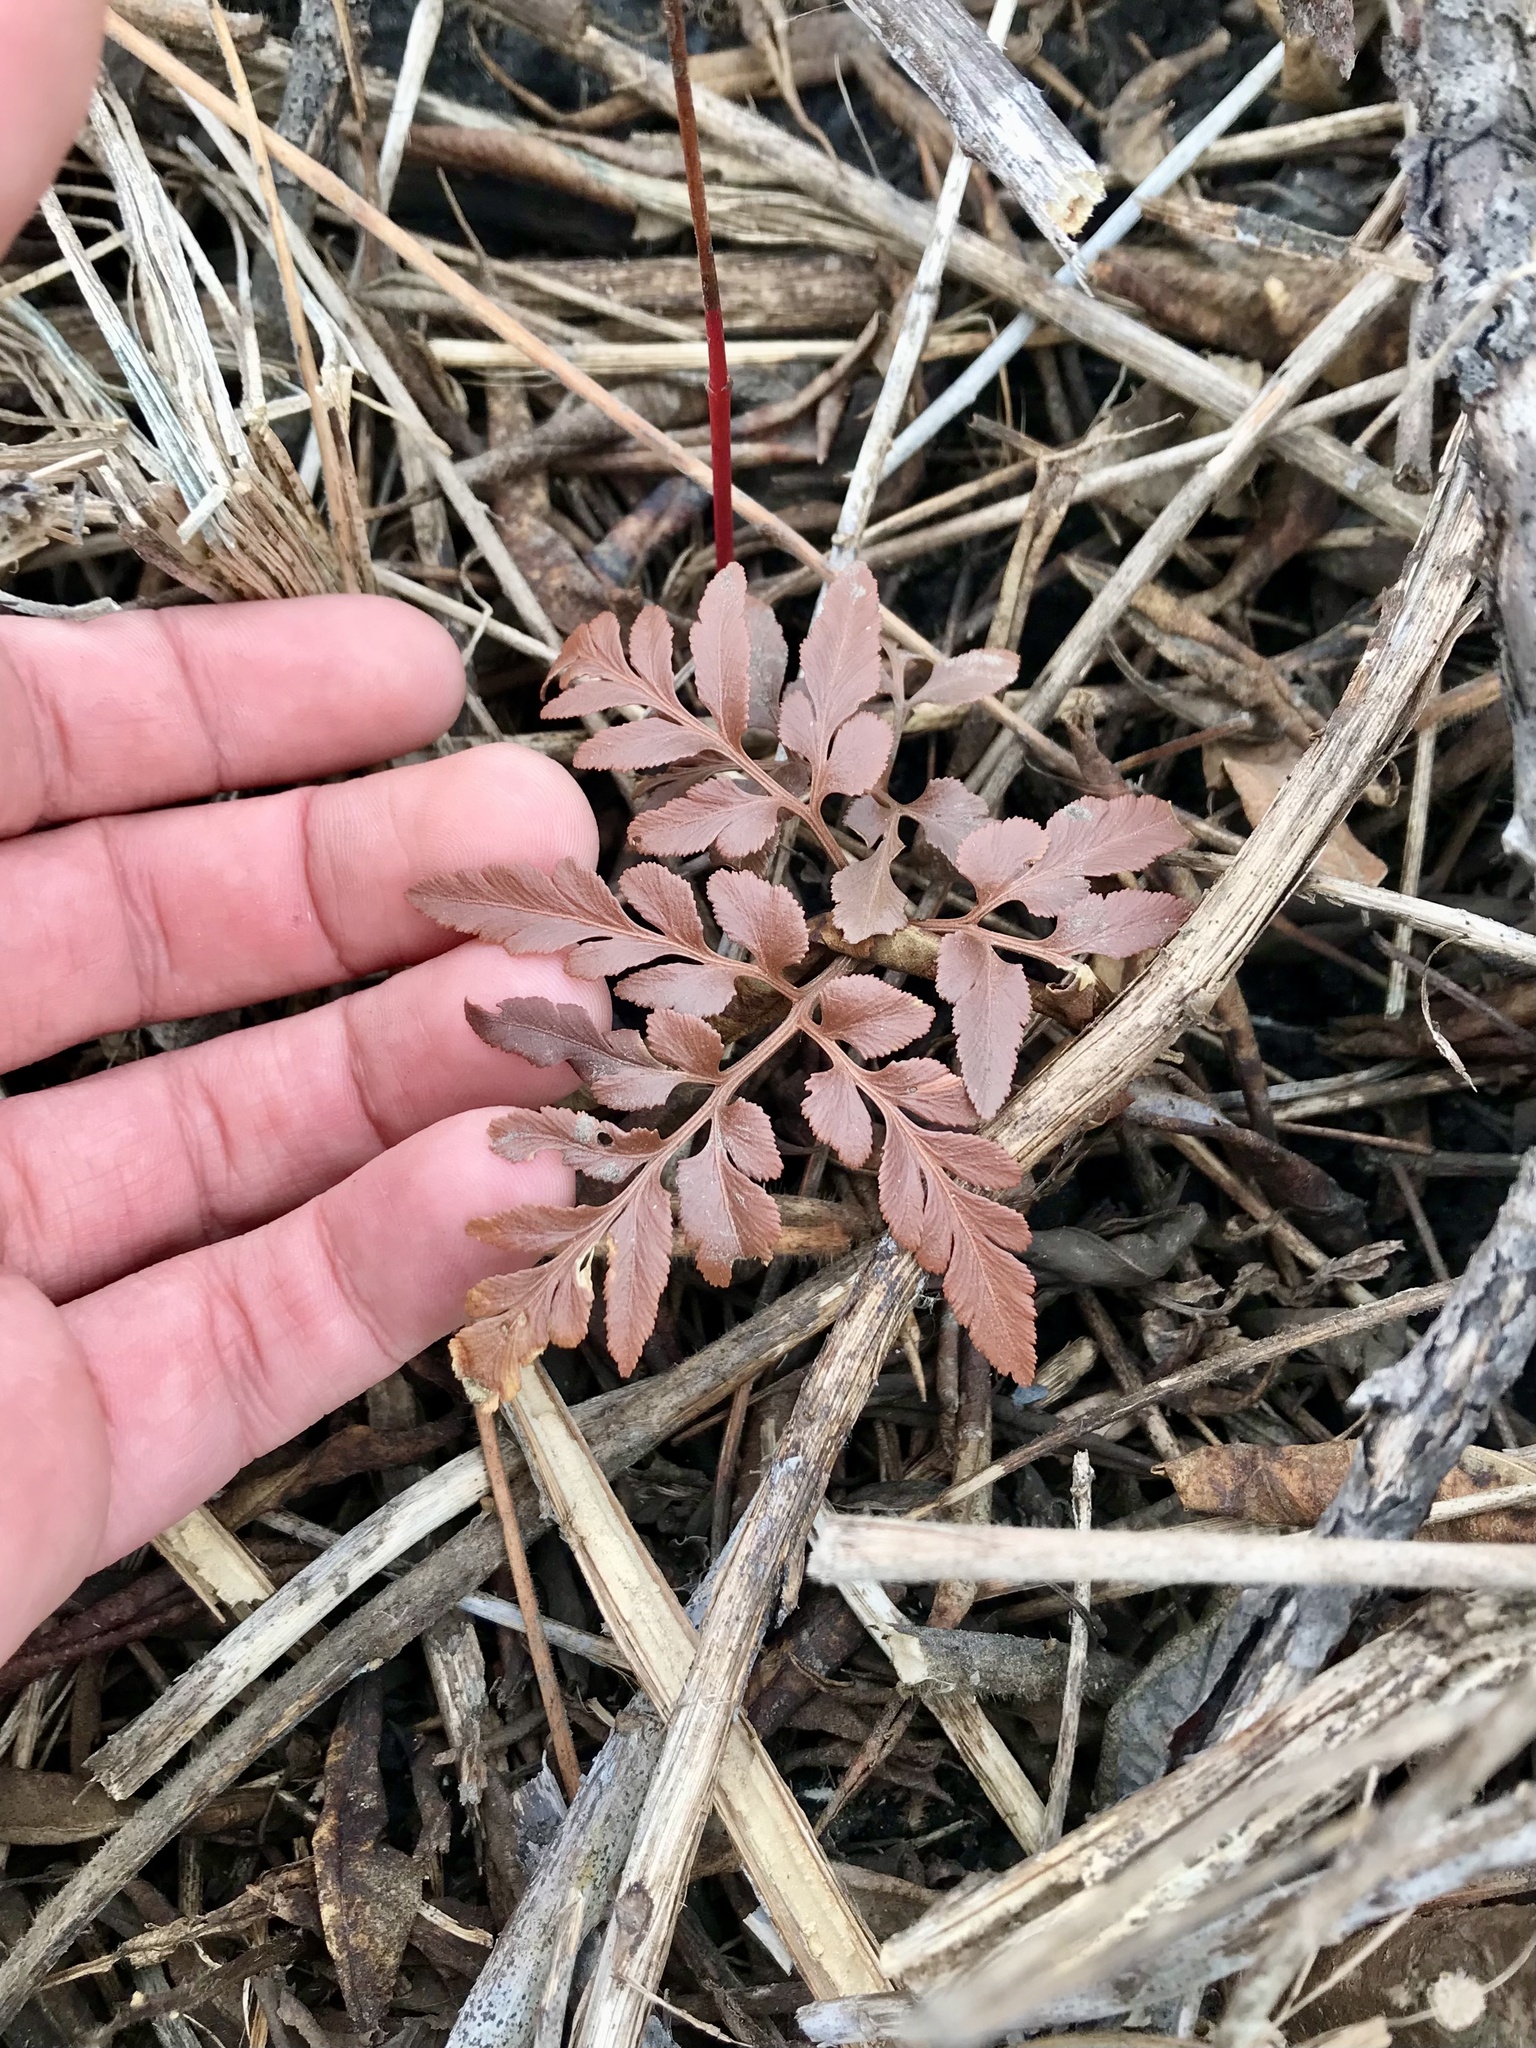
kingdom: Plantae
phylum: Tracheophyta
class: Polypodiopsida
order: Ophioglossales
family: Ophioglossaceae
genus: Sceptridium
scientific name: Sceptridium dissectum
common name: Cut-leaved grapefern
